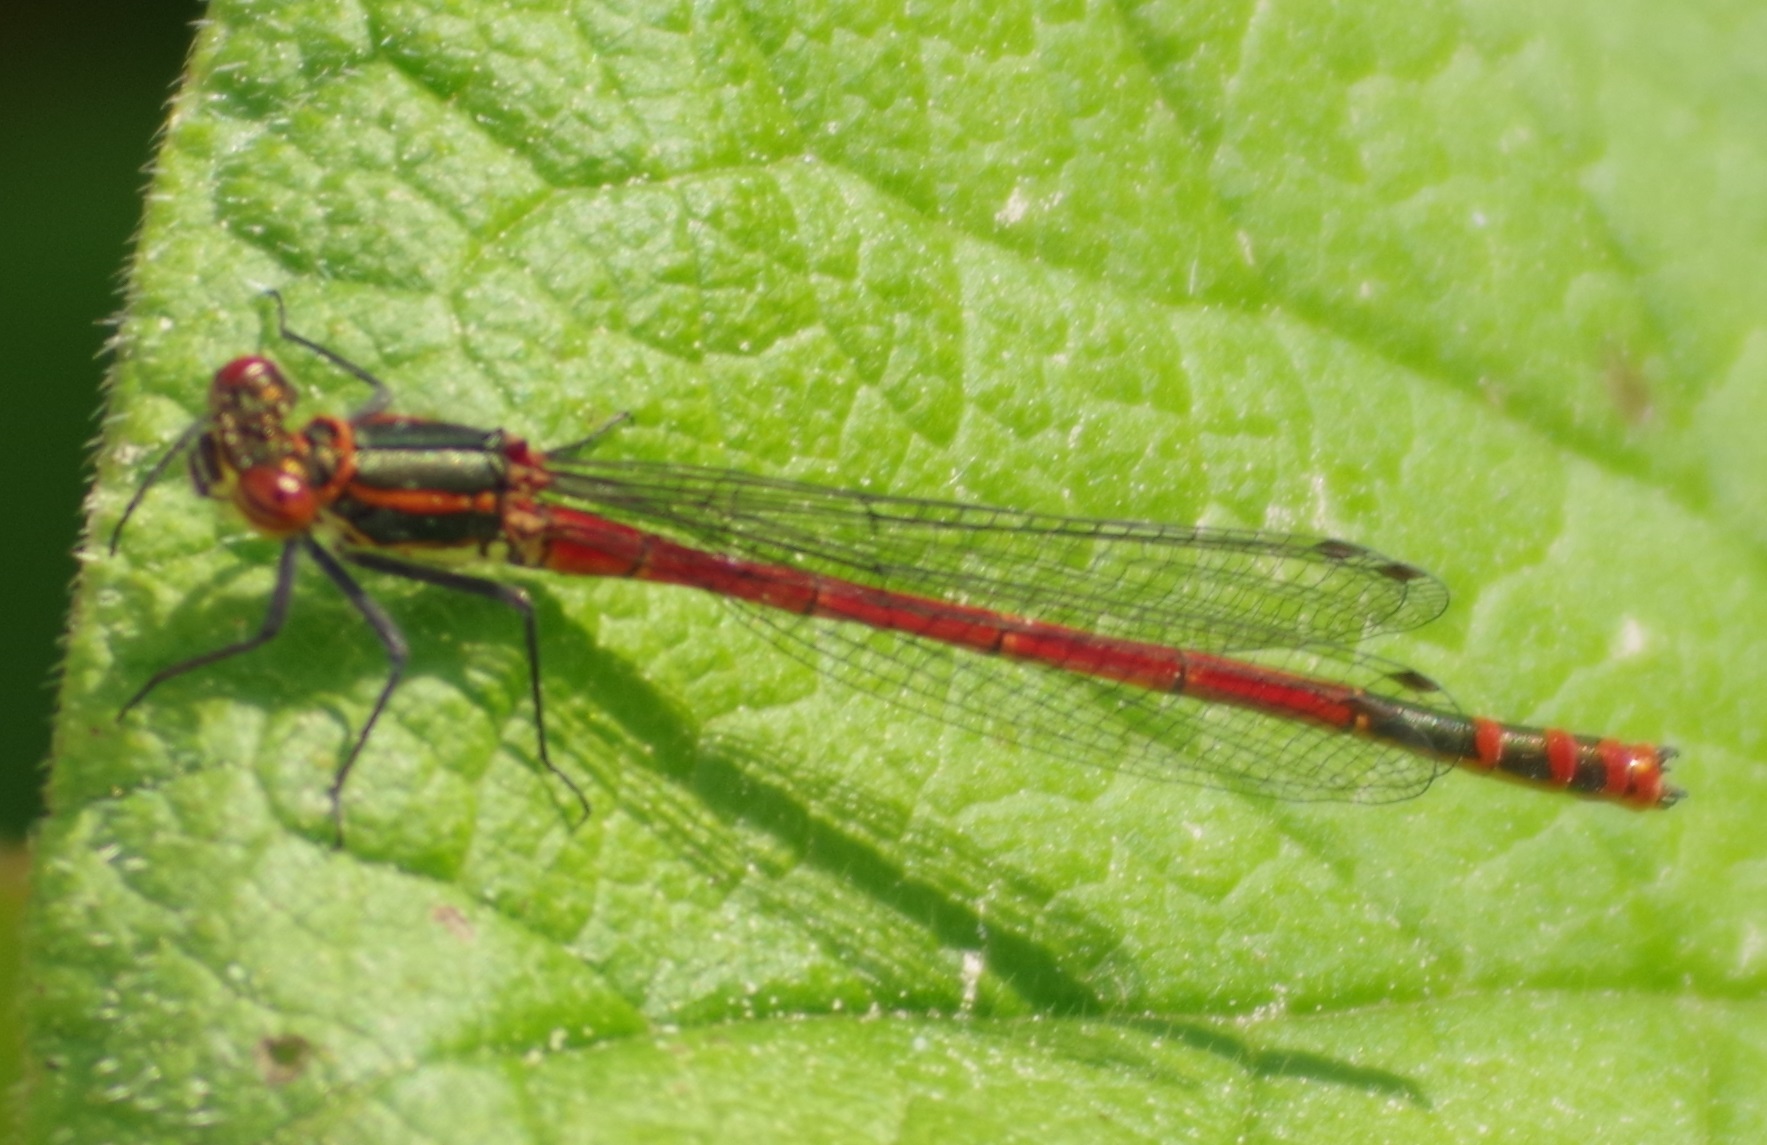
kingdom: Animalia
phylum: Arthropoda
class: Insecta
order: Odonata
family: Coenagrionidae
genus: Pyrrhosoma
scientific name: Pyrrhosoma nymphula
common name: Large red damsel
